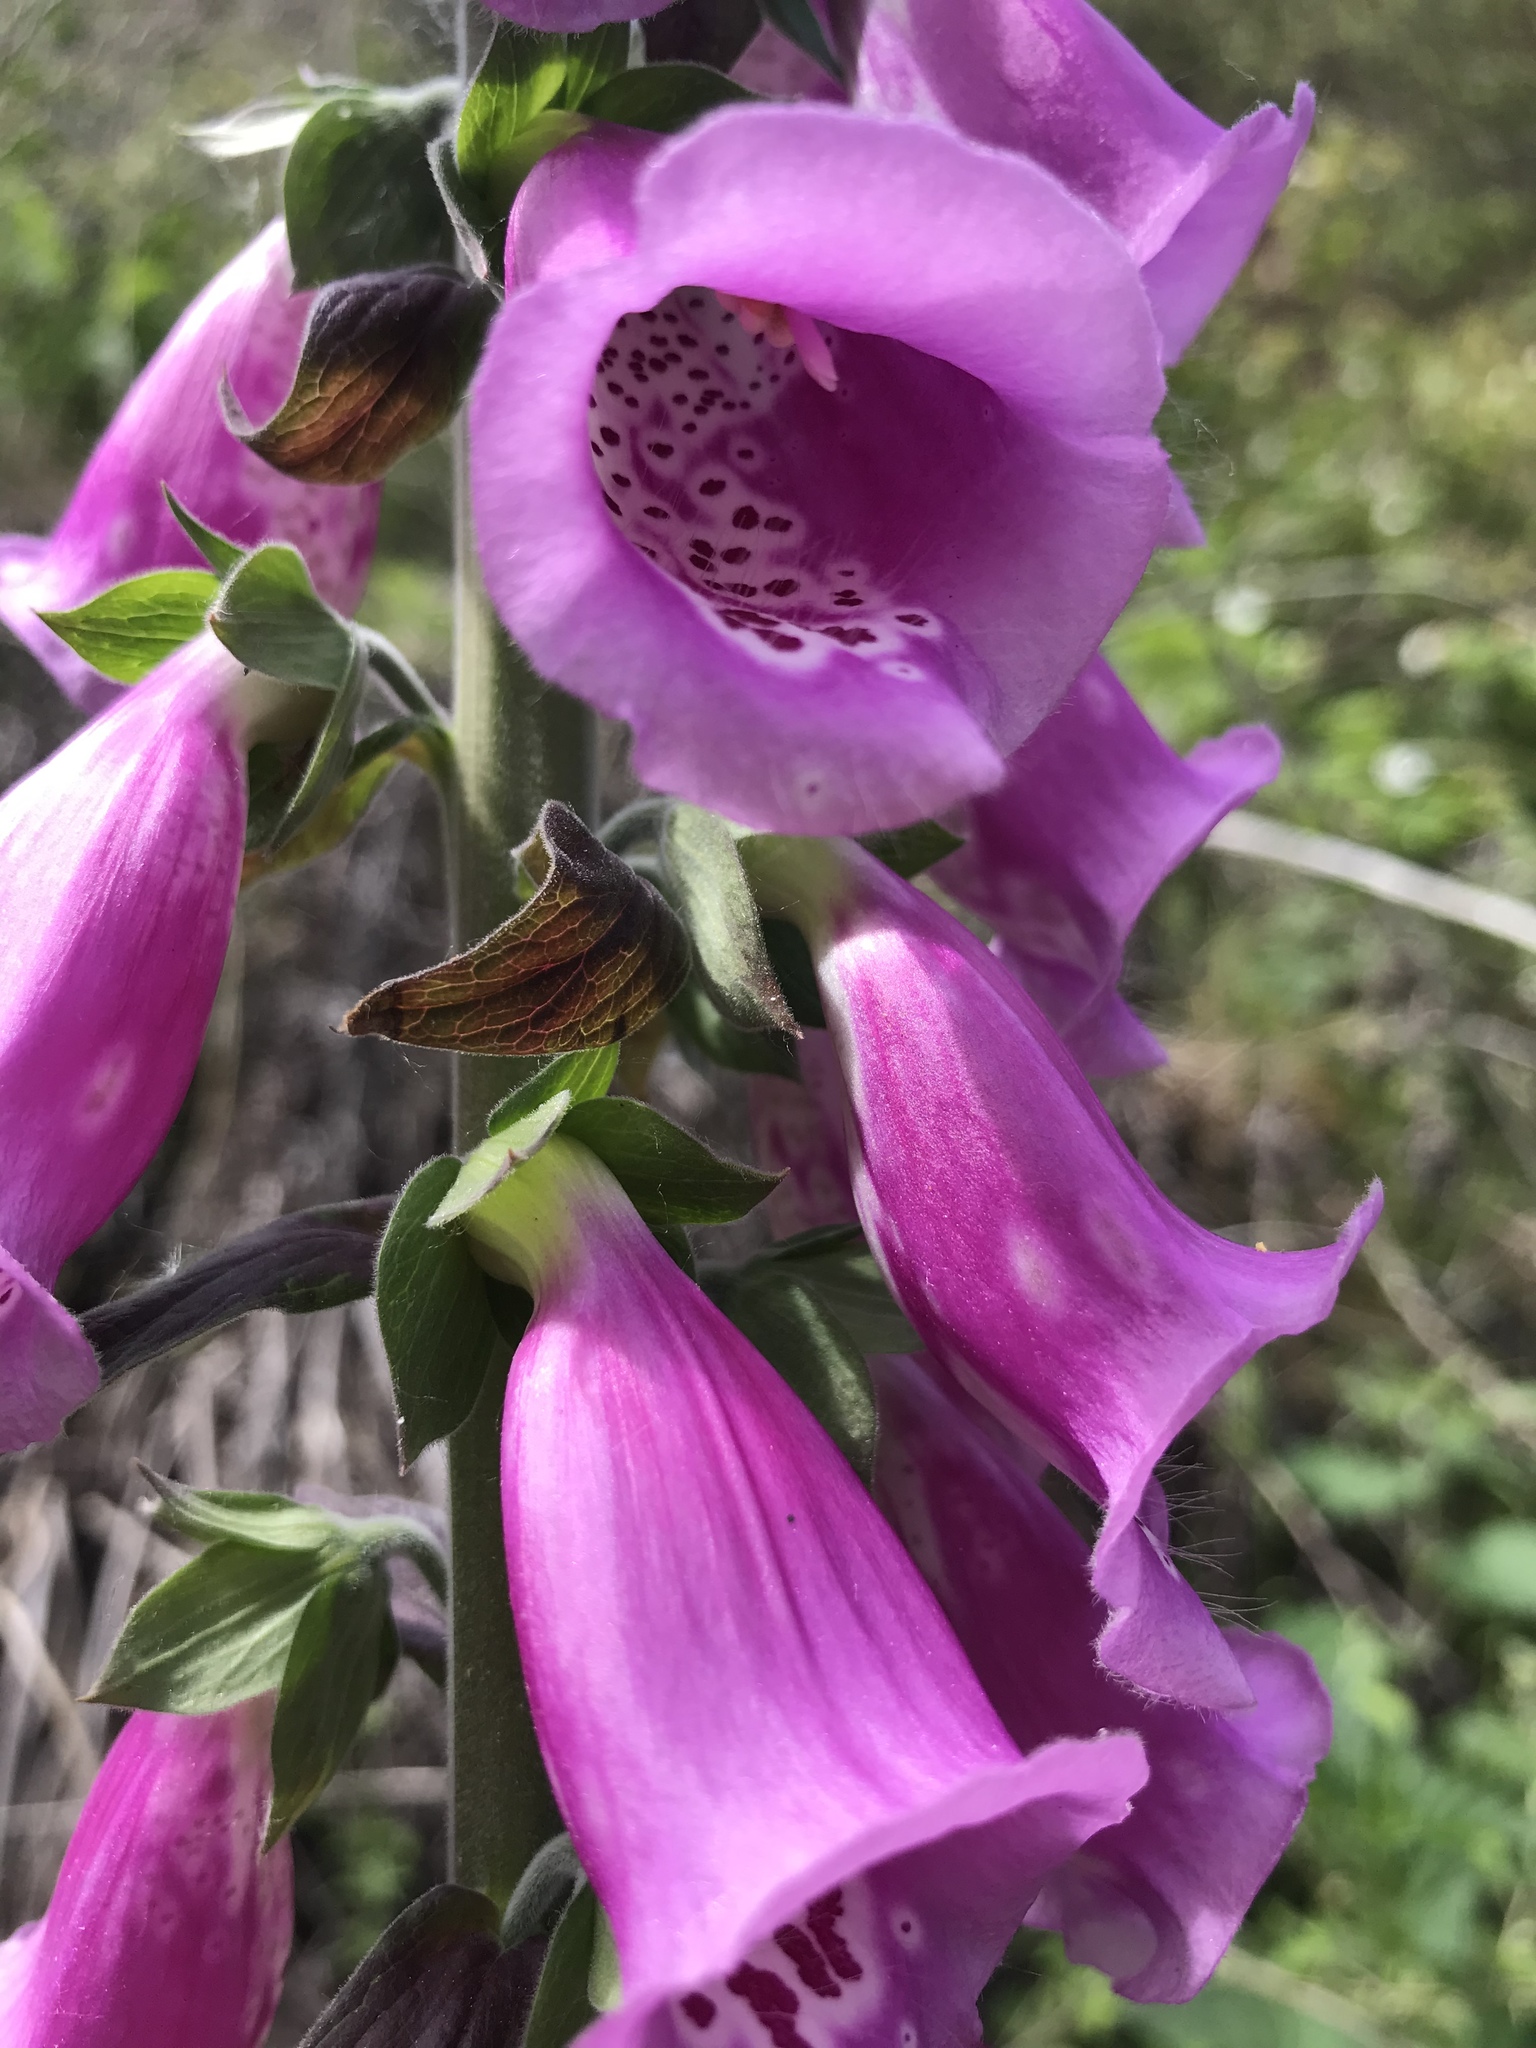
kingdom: Plantae
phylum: Tracheophyta
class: Magnoliopsida
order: Lamiales
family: Plantaginaceae
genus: Digitalis
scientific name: Digitalis purpurea
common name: Foxglove
